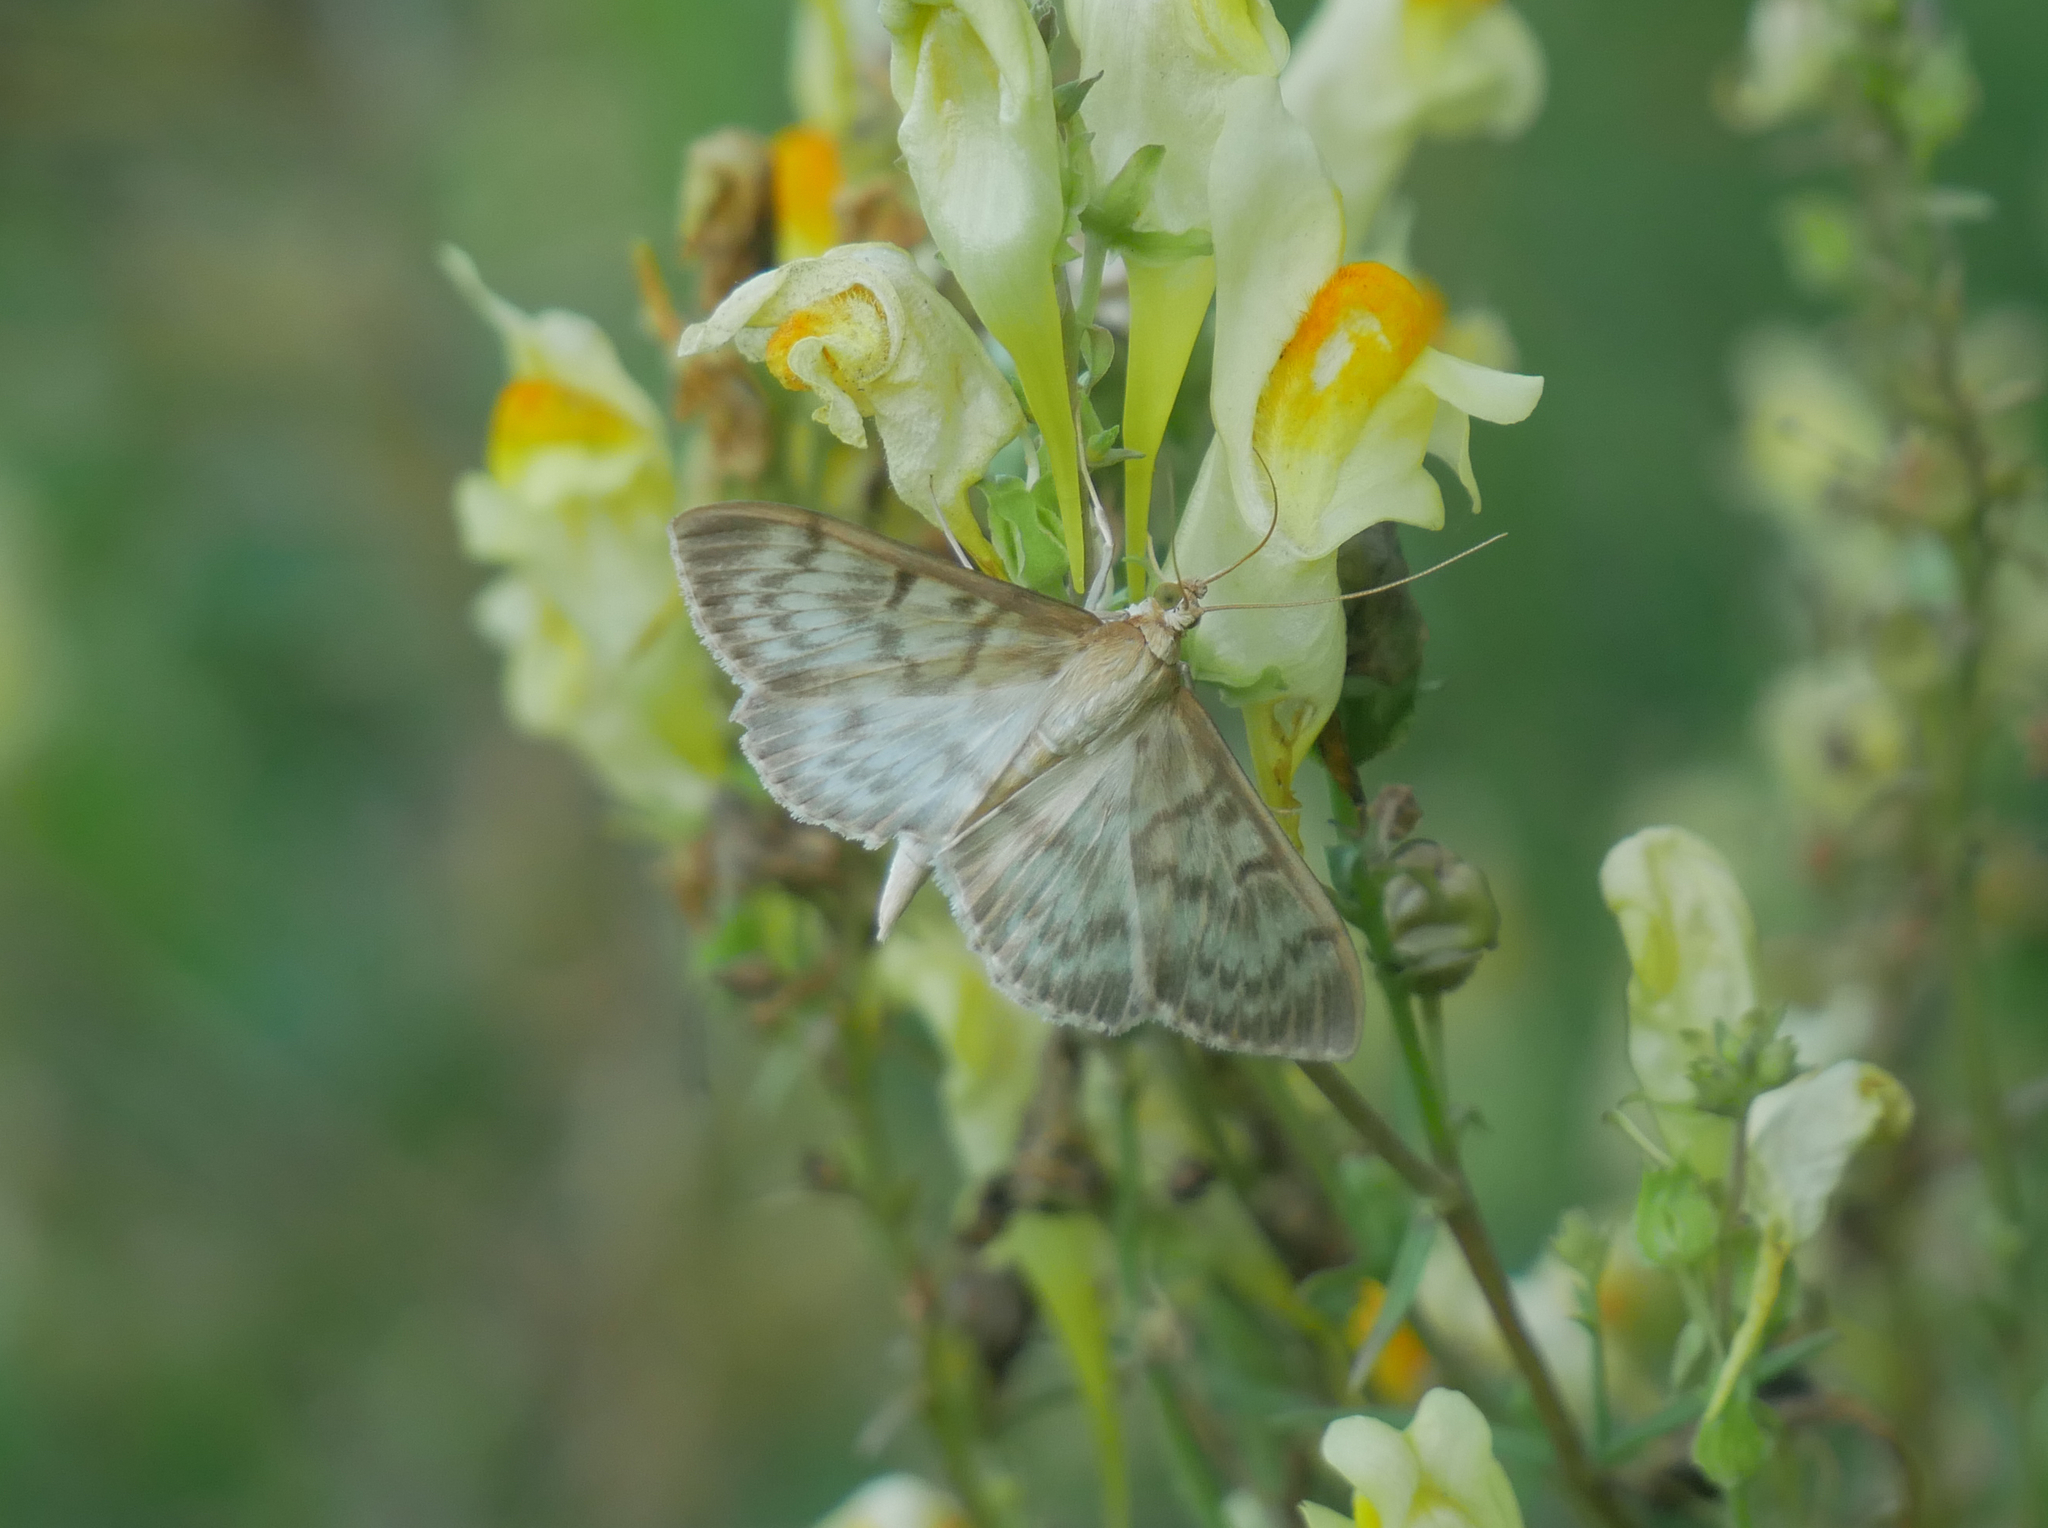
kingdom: Animalia
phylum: Arthropoda
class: Insecta
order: Lepidoptera
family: Crambidae
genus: Patania
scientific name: Patania ruralis
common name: Mother of pearl
